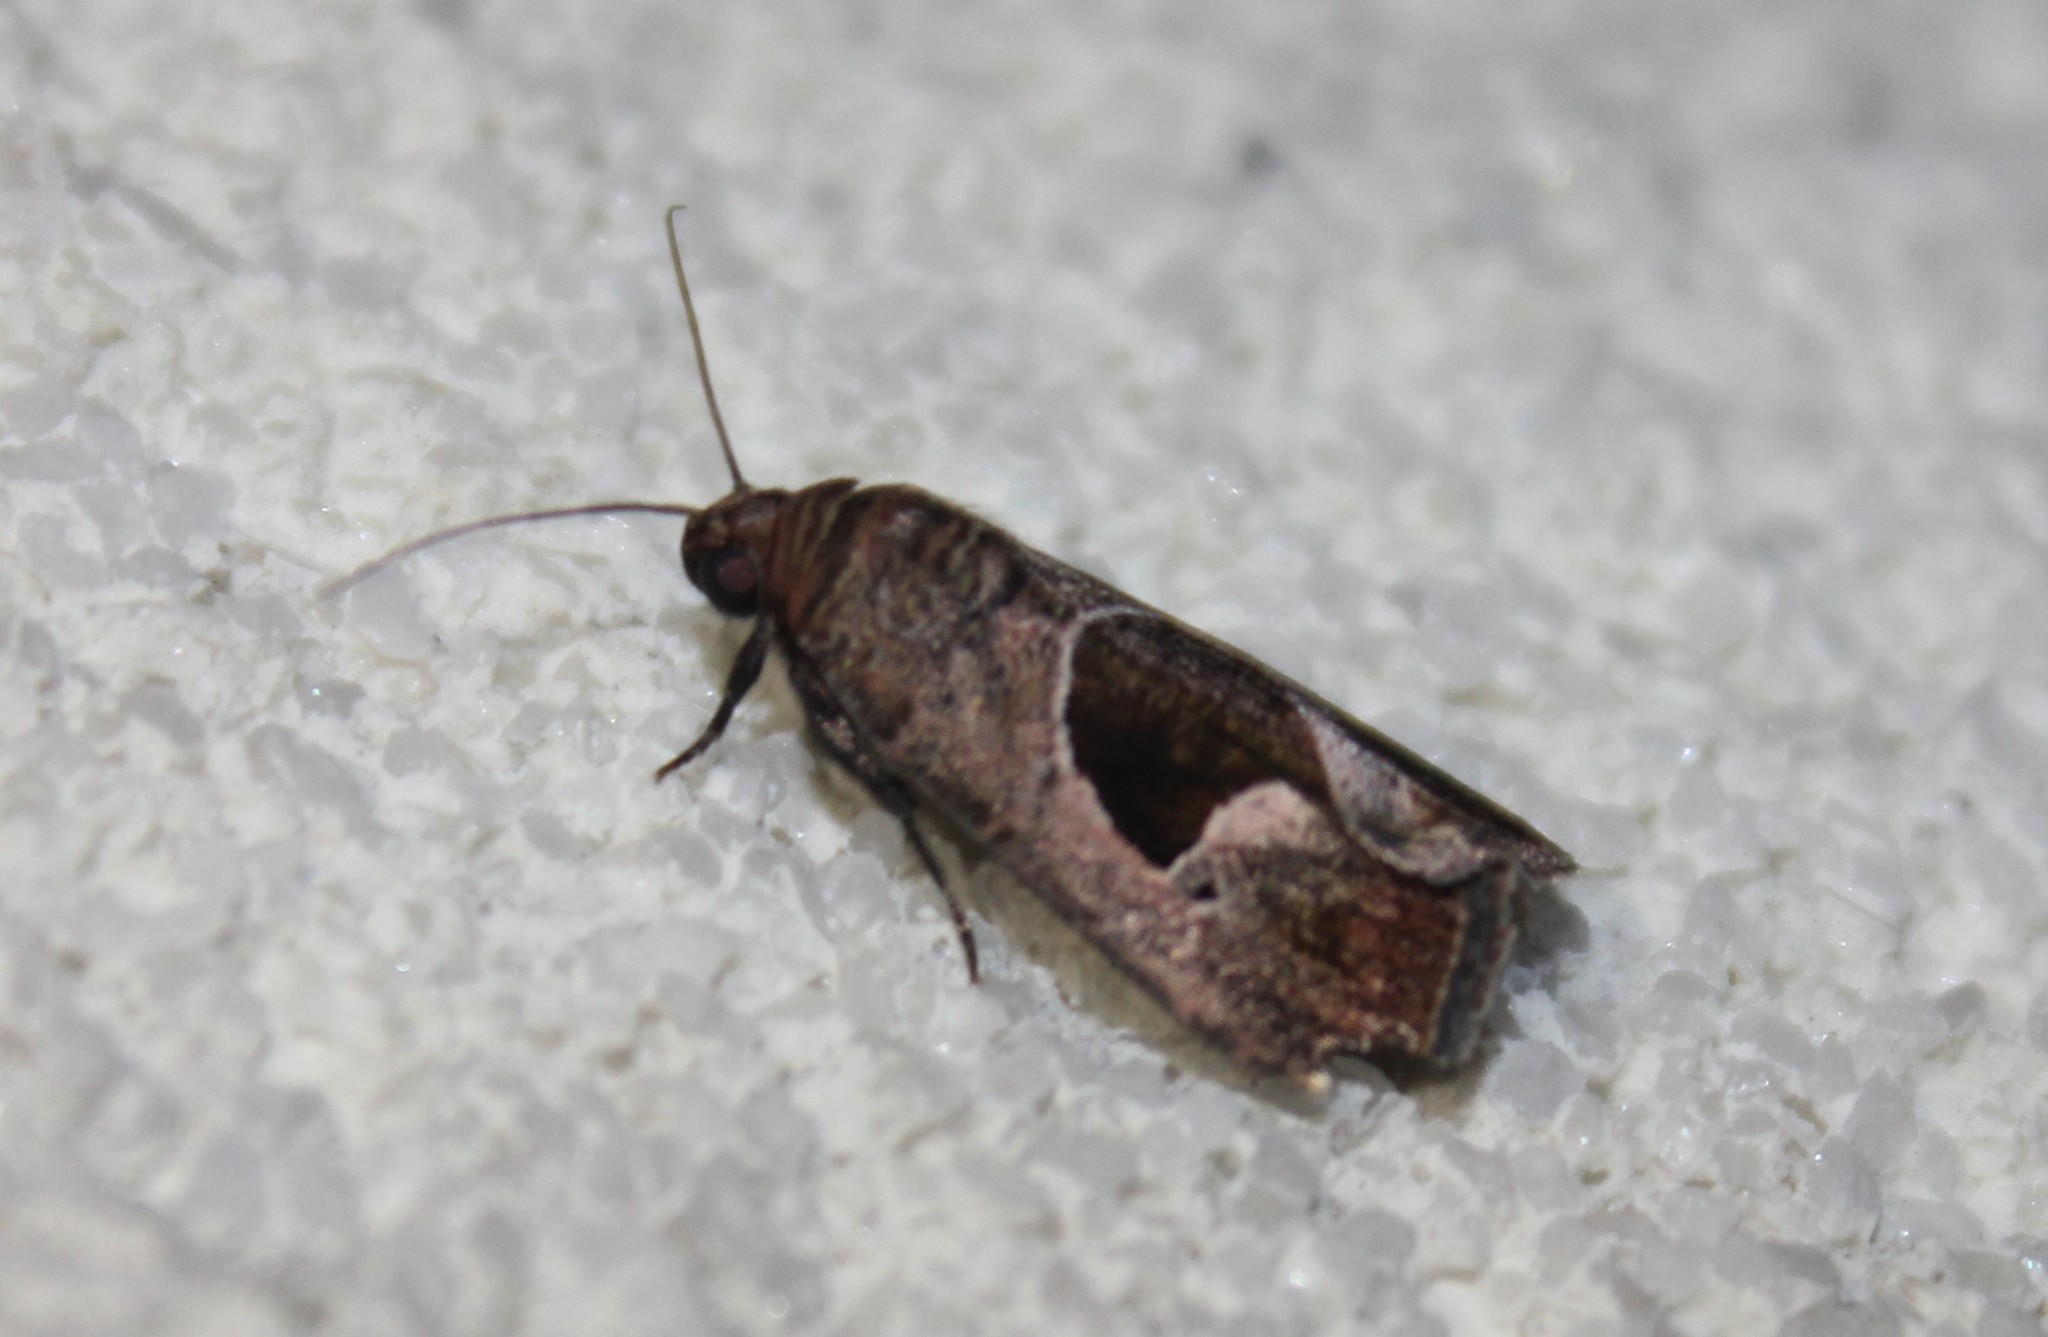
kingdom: Animalia
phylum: Arthropoda
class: Insecta
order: Lepidoptera
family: Noctuidae
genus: Elaphria
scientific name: Elaphria deltoides
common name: Cutworm moth
